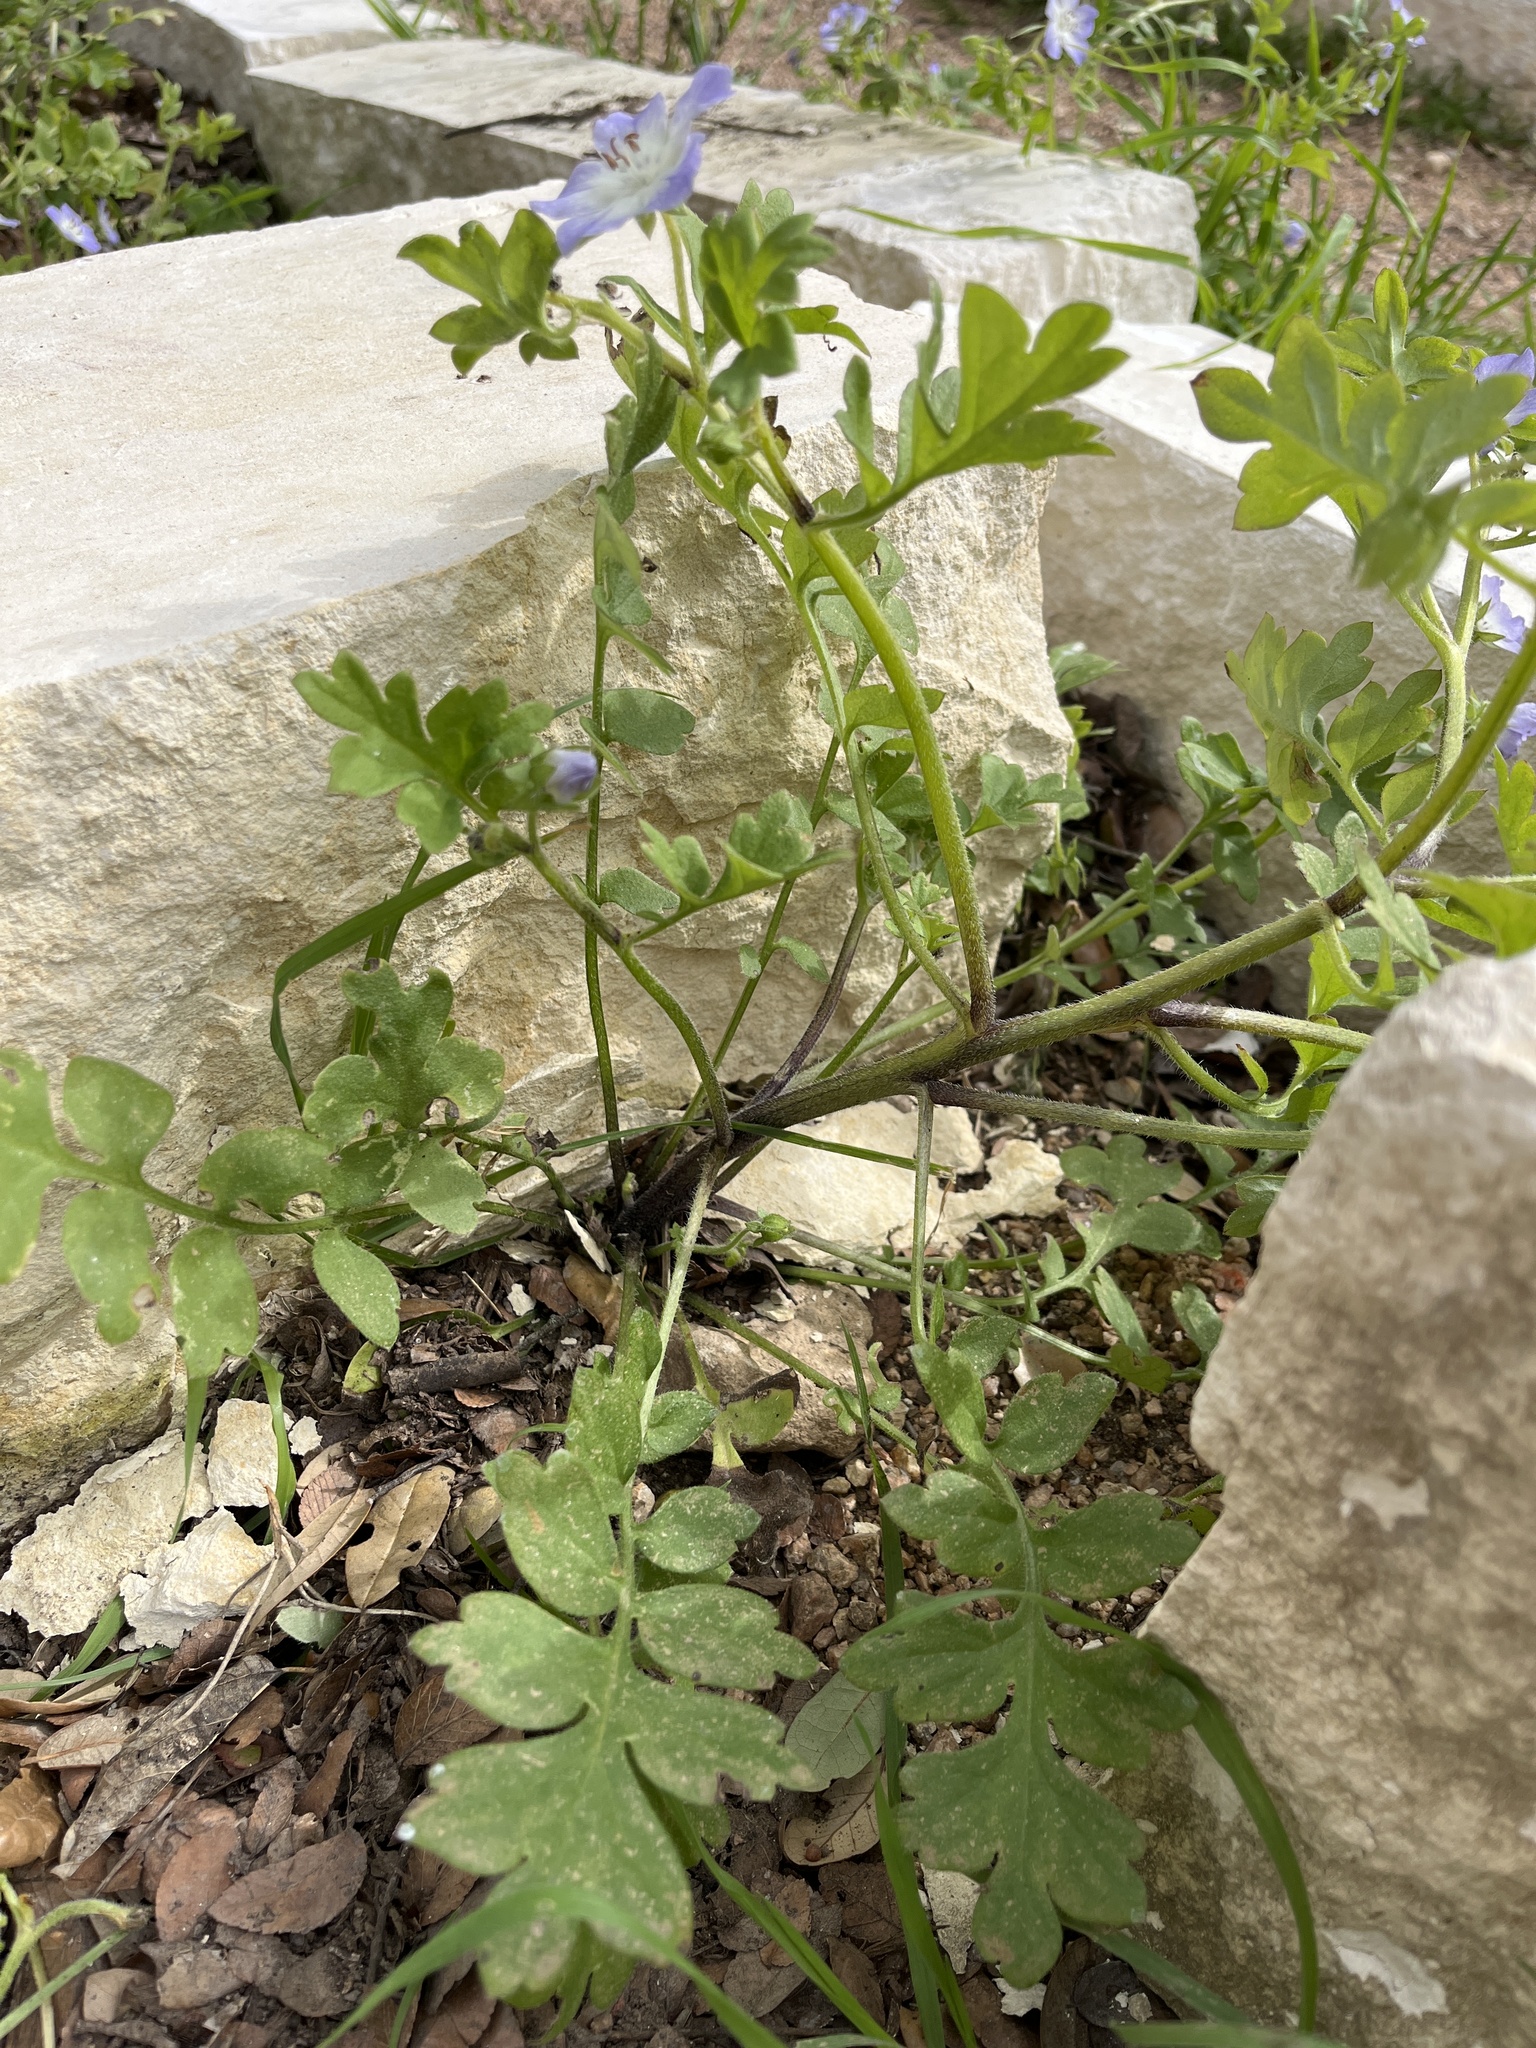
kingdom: Plantae
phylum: Tracheophyta
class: Magnoliopsida
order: Boraginales
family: Hydrophyllaceae
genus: Nemophila
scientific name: Nemophila phacelioides
